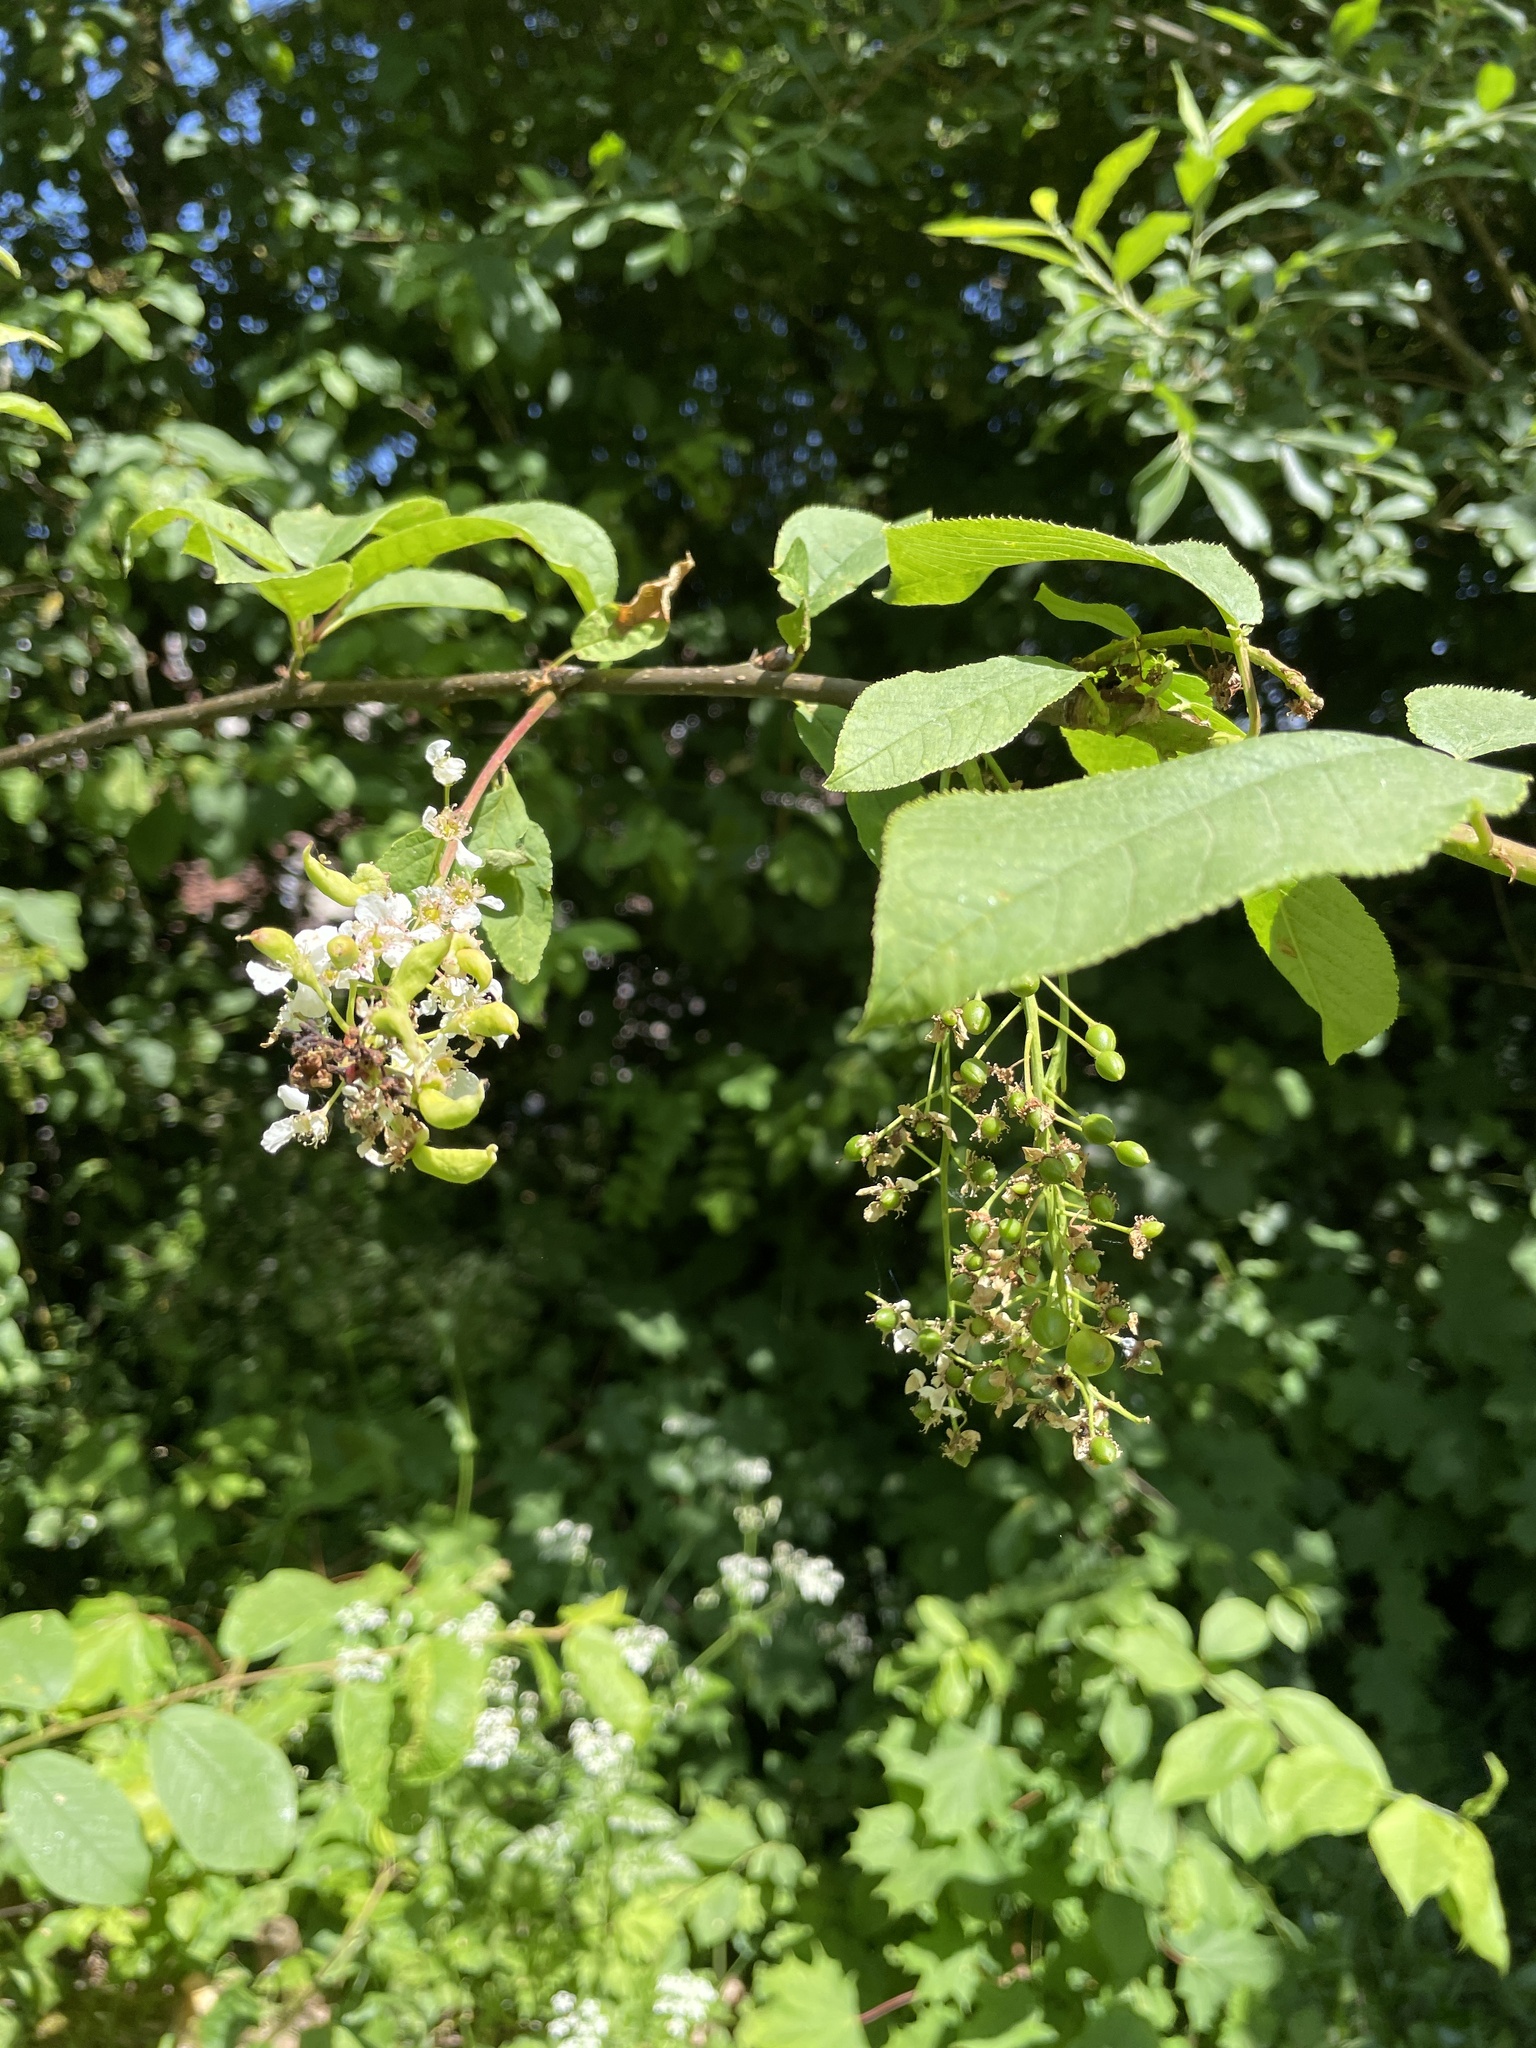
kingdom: Plantae
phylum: Tracheophyta
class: Magnoliopsida
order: Rosales
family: Rosaceae
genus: Prunus
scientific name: Prunus padus
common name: Bird cherry
